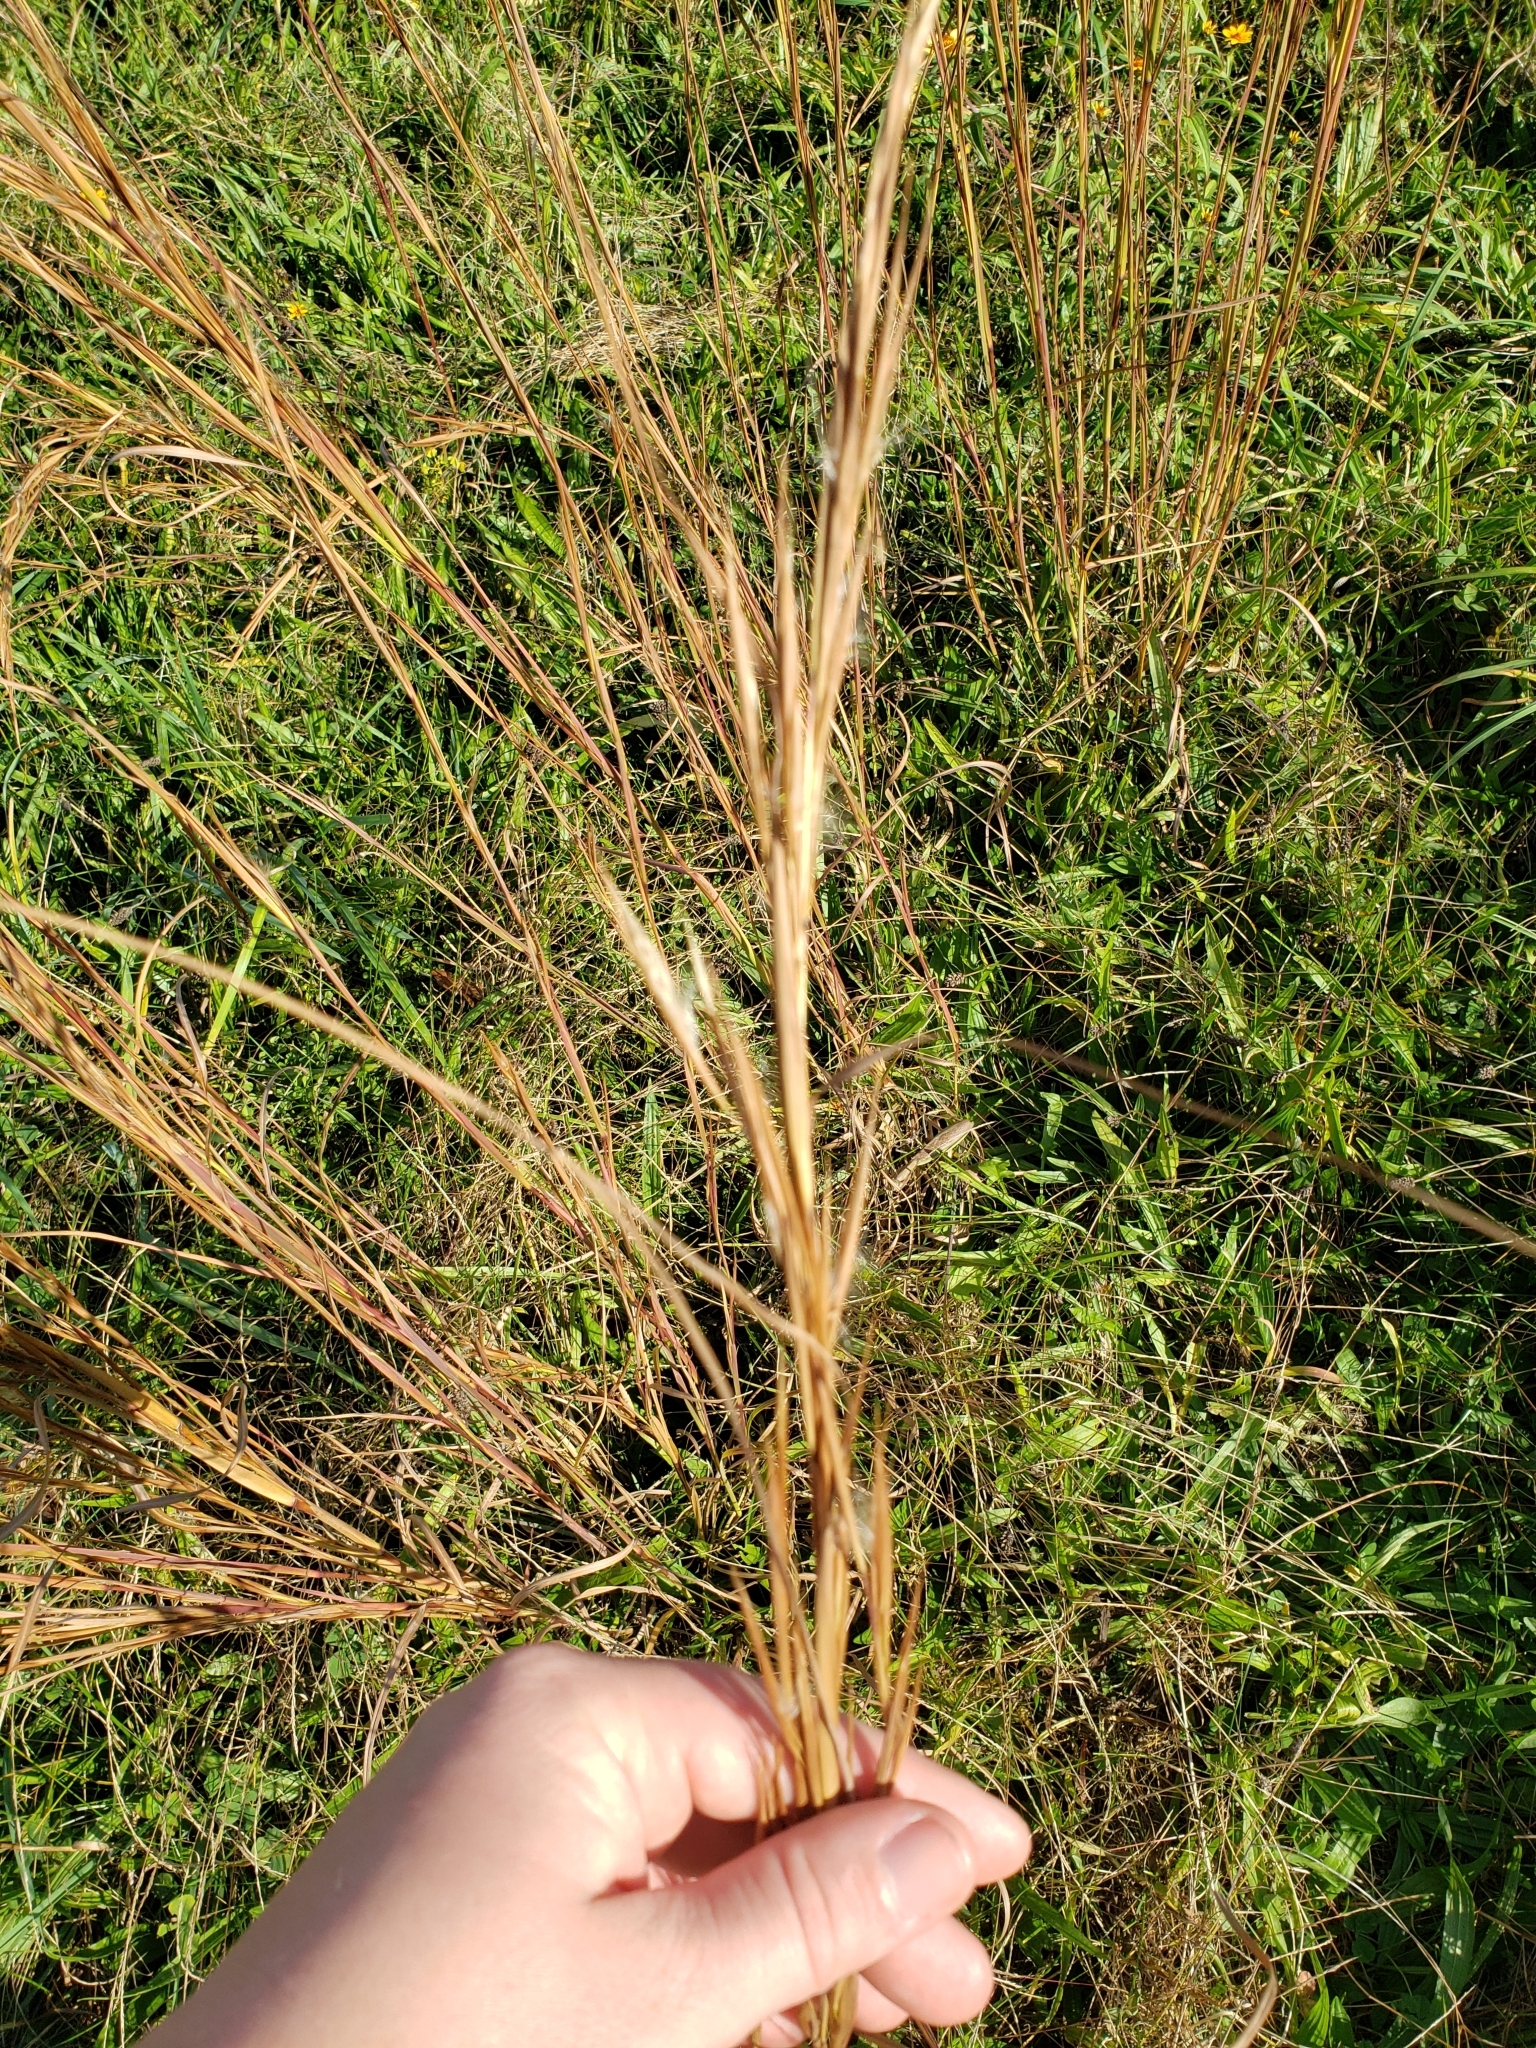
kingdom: Plantae
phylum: Tracheophyta
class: Liliopsida
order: Poales
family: Poaceae
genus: Andropogon
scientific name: Andropogon virginicus
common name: Broomsedge bluestem
